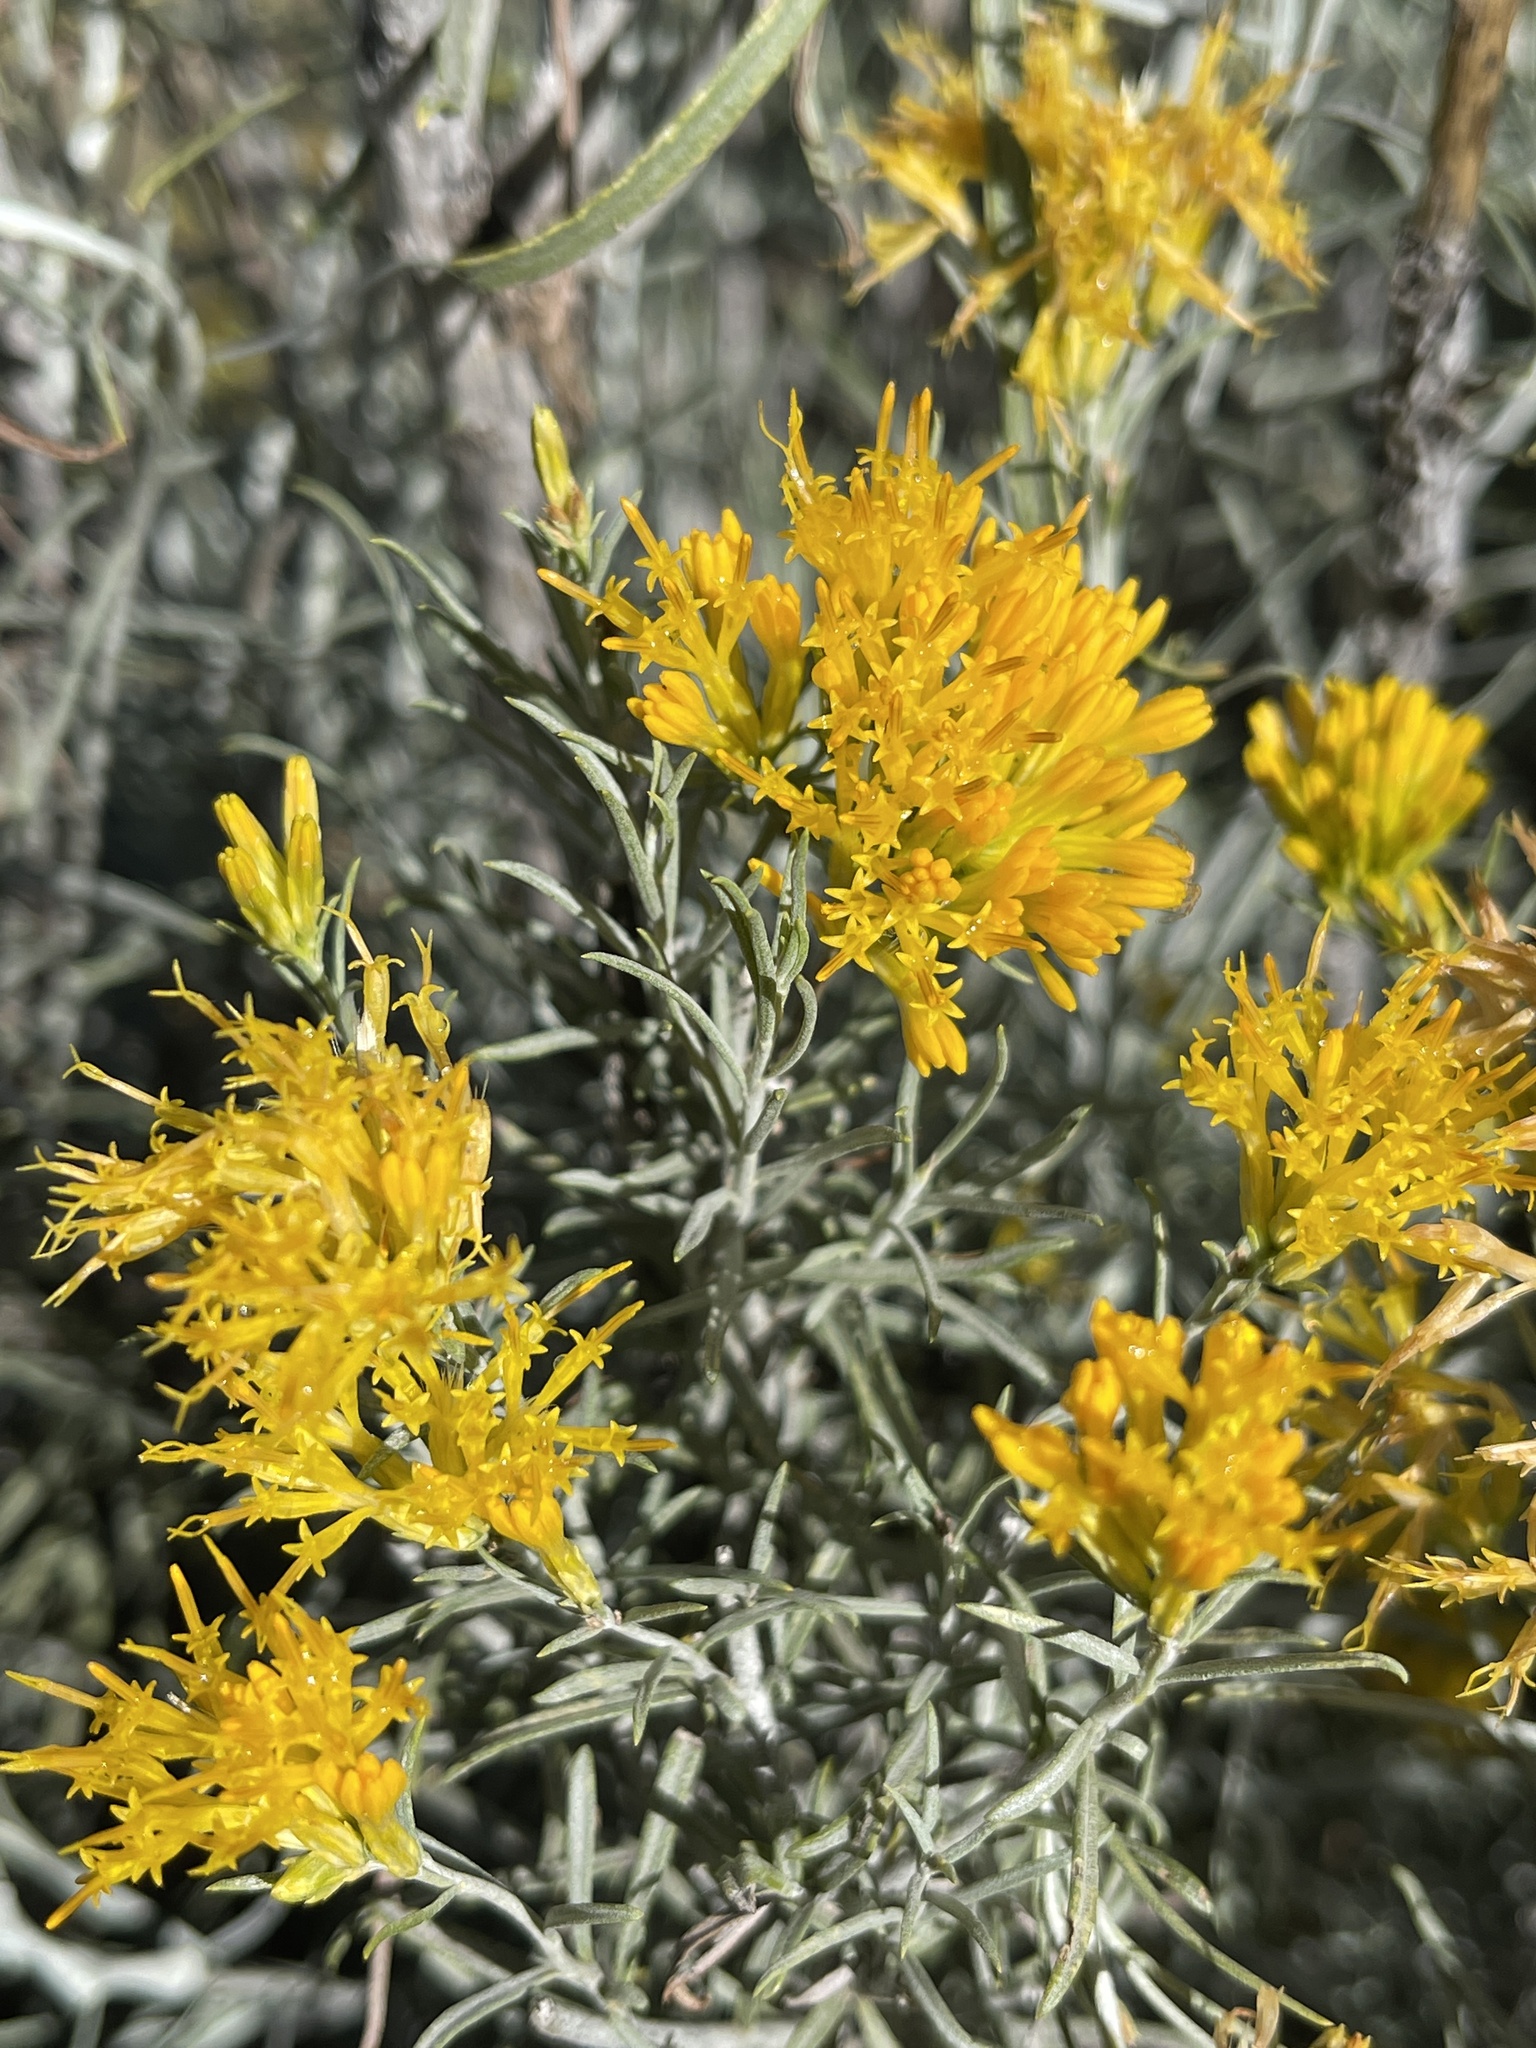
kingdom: Plantae
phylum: Tracheophyta
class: Magnoliopsida
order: Asterales
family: Asteraceae
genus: Ericameria
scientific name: Ericameria nauseosa
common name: Rubber rabbitbrush
